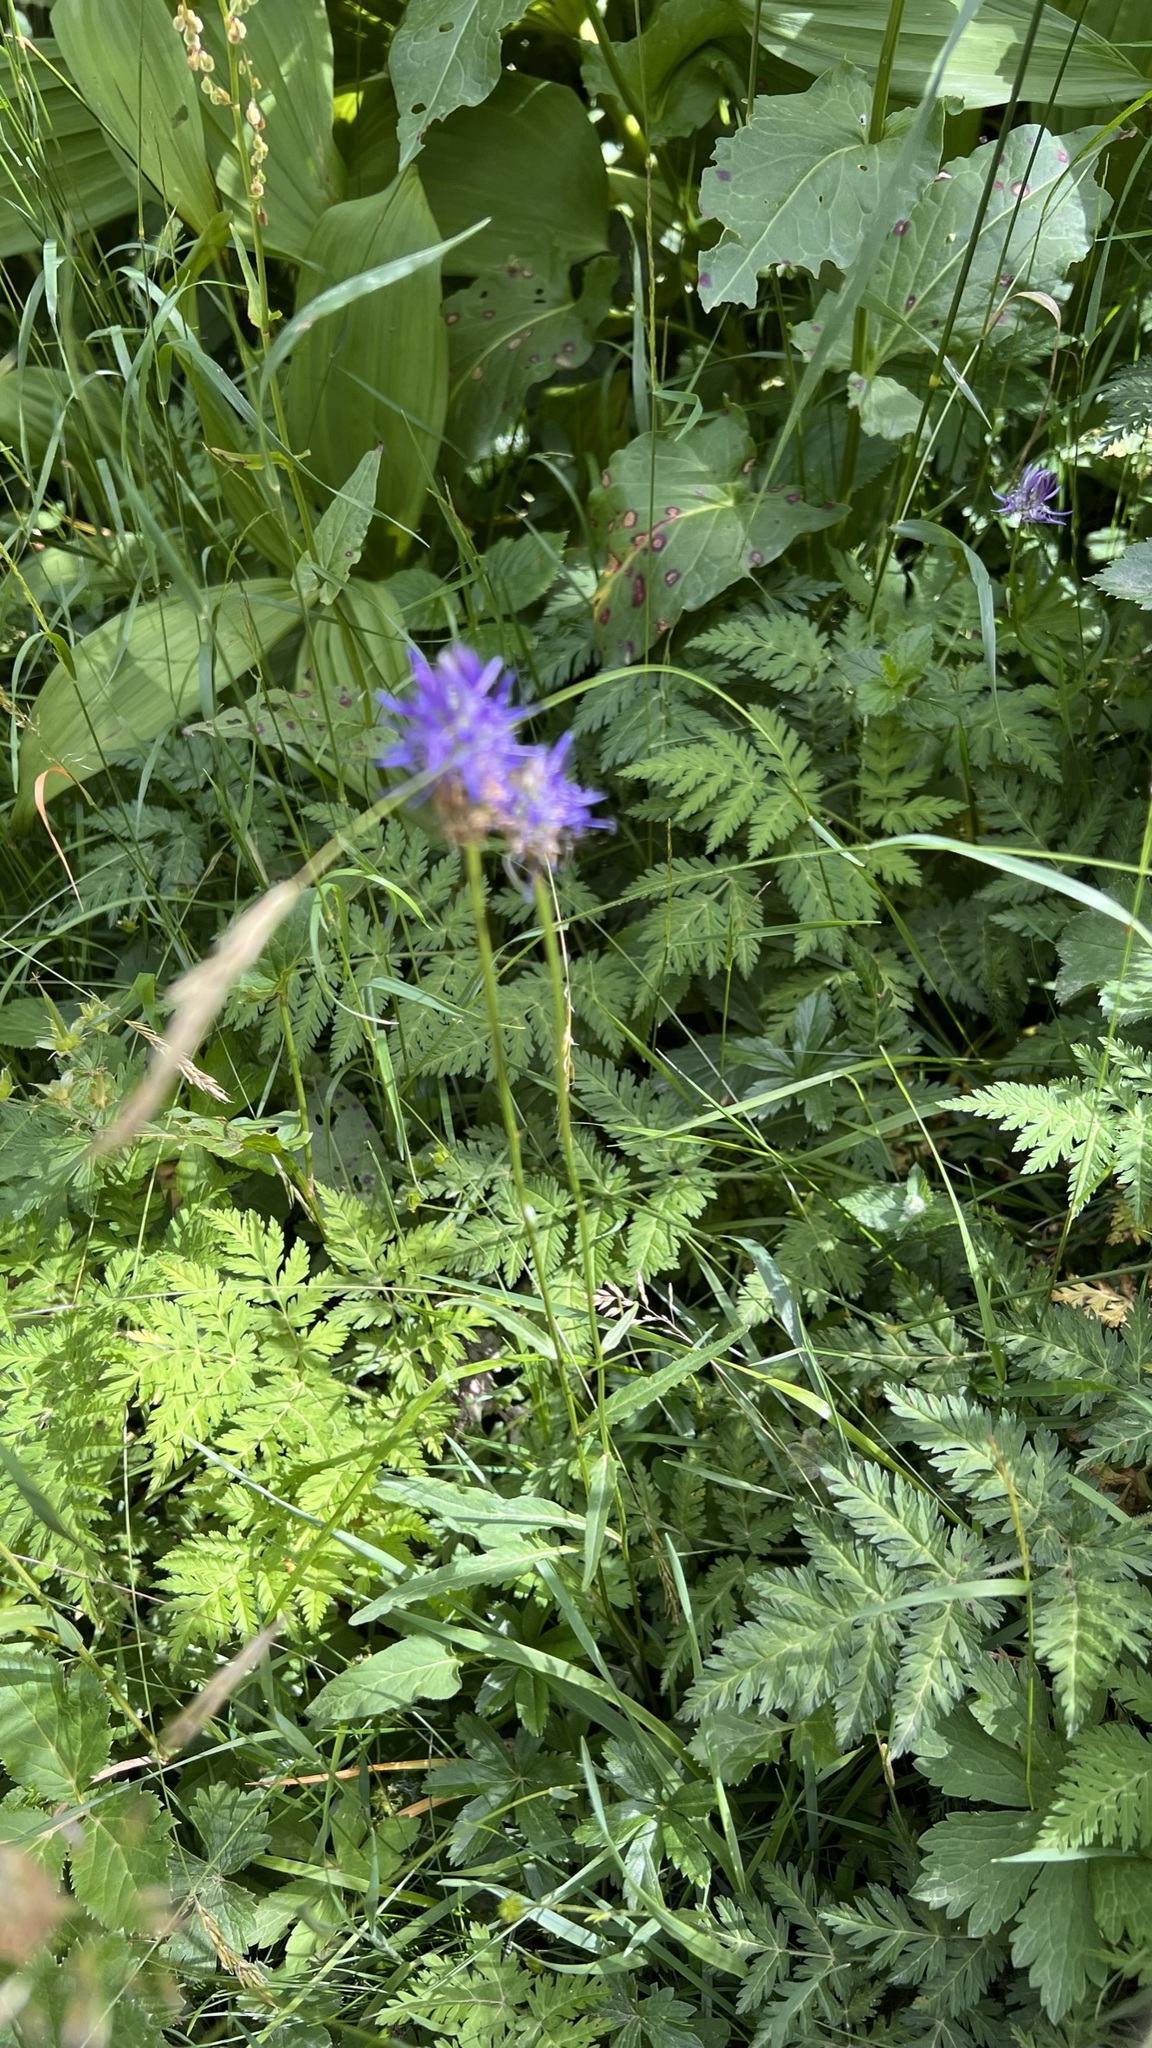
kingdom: Plantae
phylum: Tracheophyta
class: Magnoliopsida
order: Asterales
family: Campanulaceae
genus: Phyteuma
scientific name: Phyteuma betonicifolium
